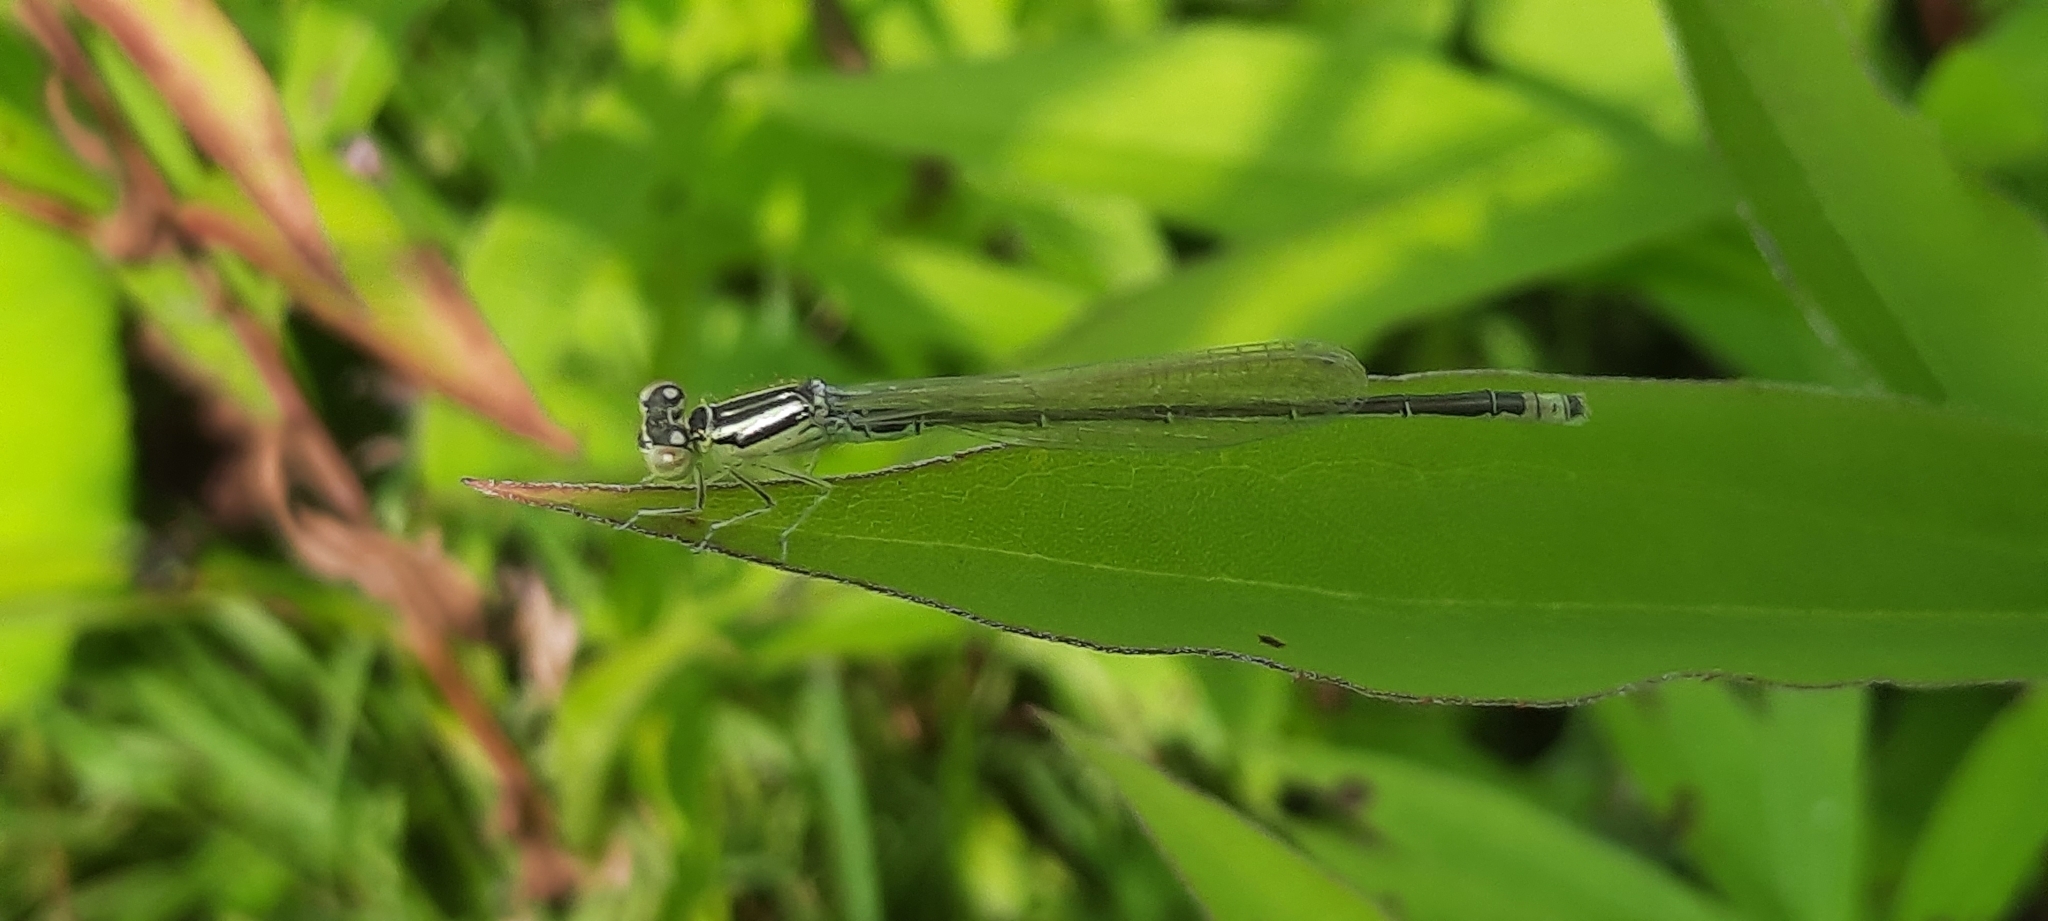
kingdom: Animalia
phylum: Arthropoda
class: Insecta
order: Odonata
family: Coenagrionidae
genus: Ischnura
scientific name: Ischnura pumilio
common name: Scarce blue-tailed damselfly
